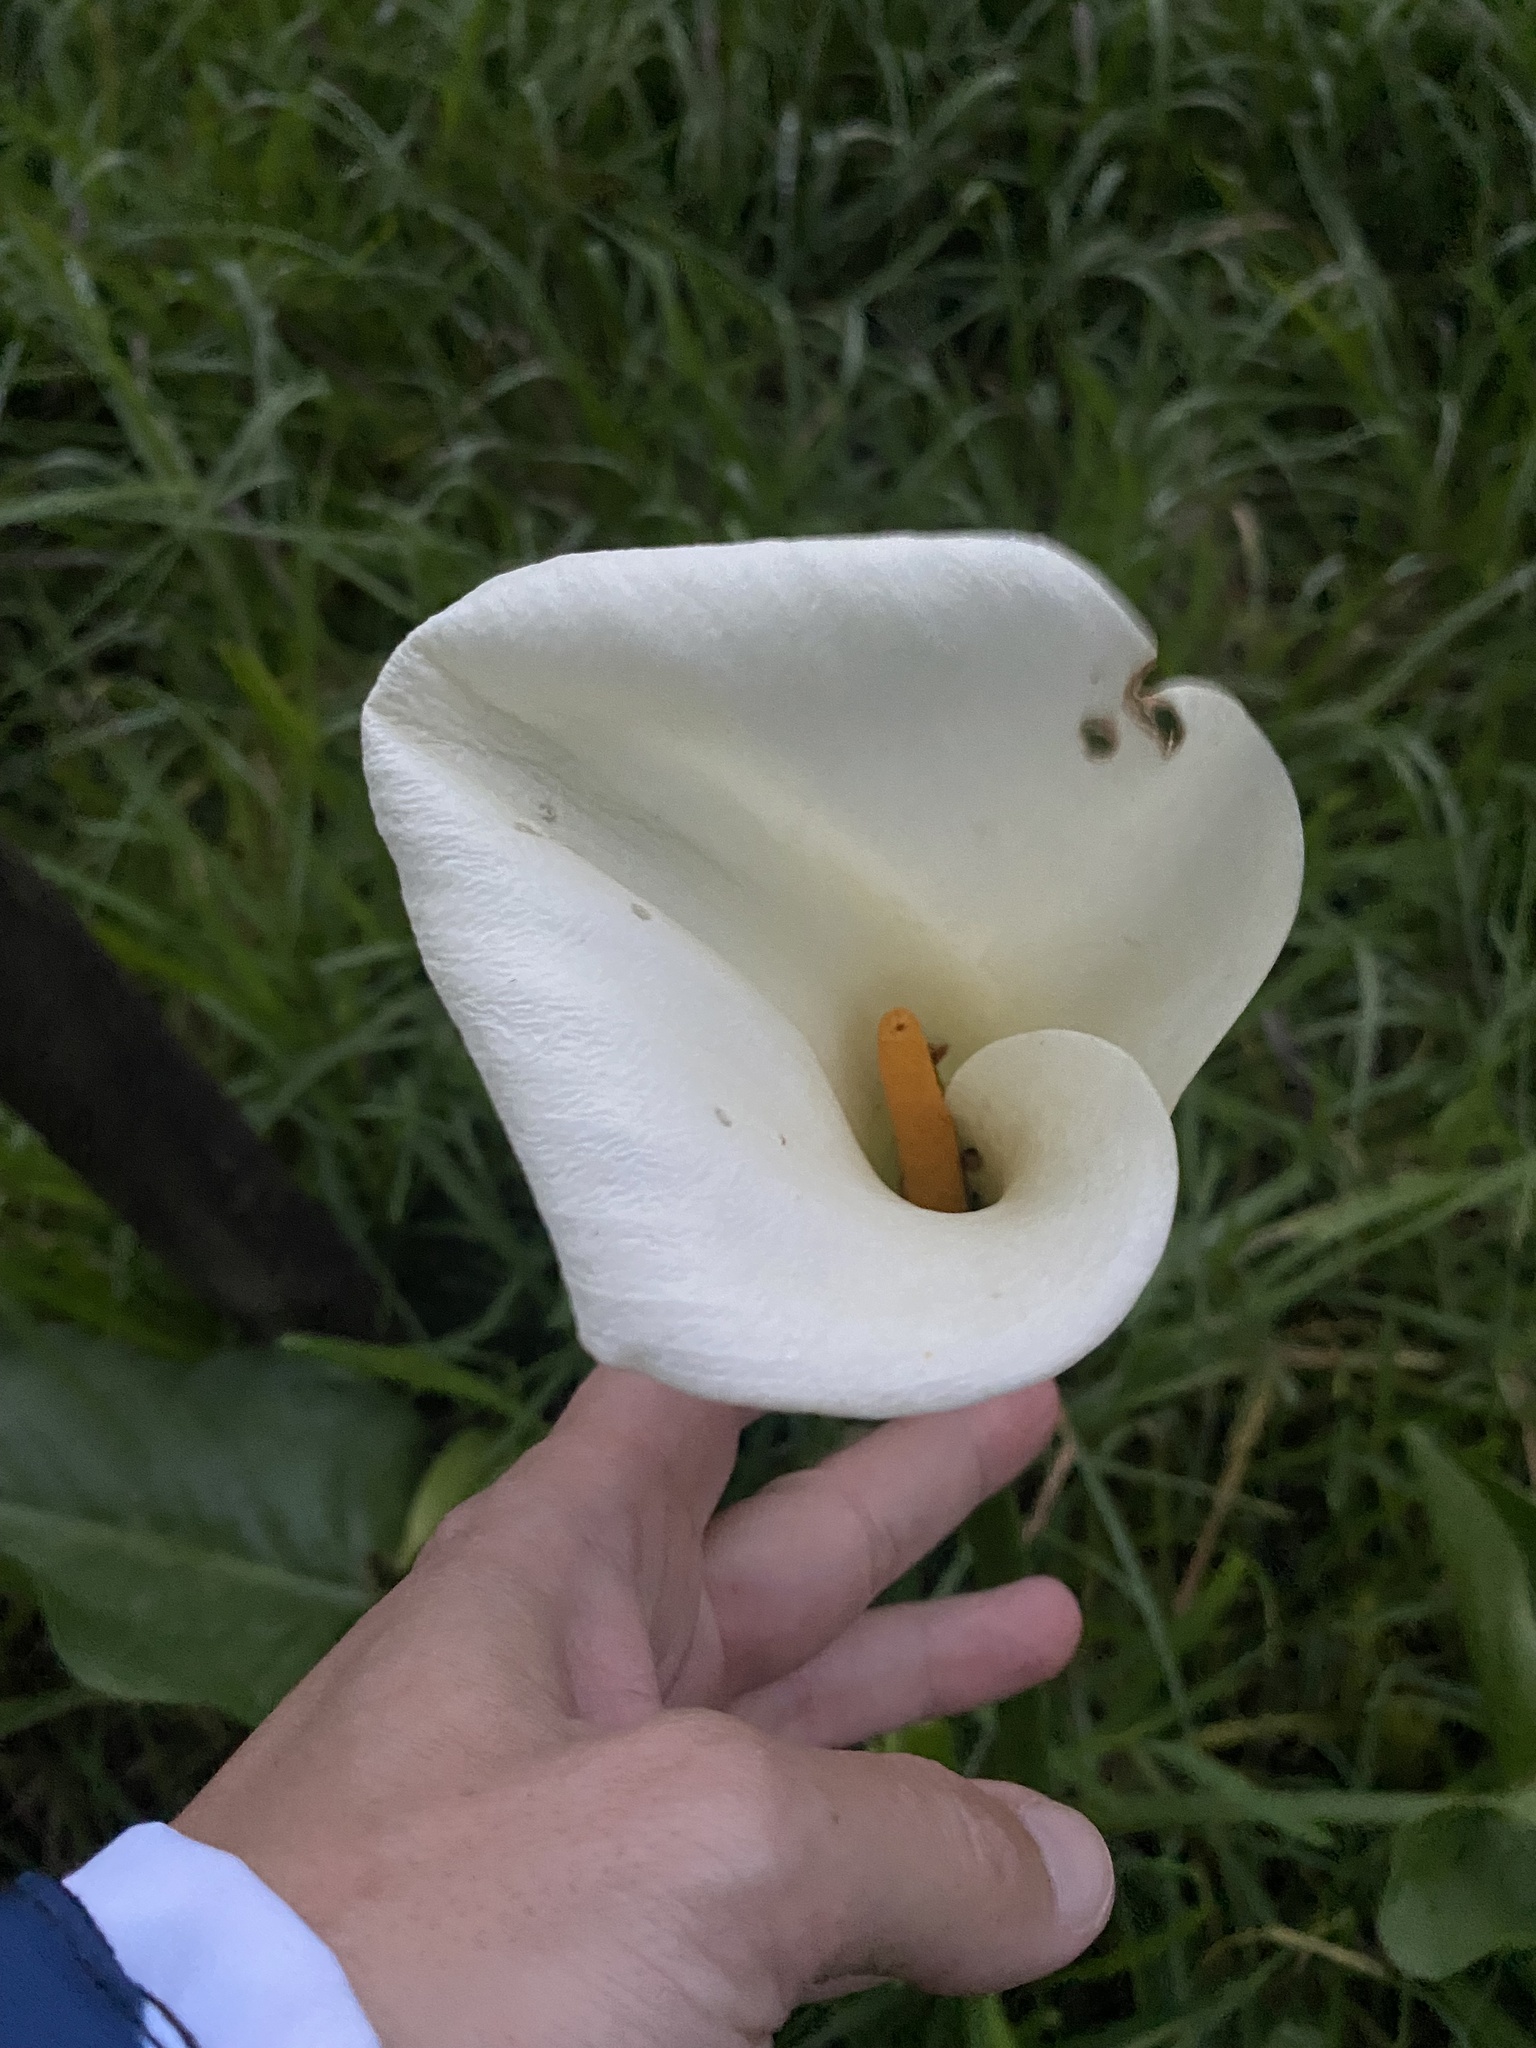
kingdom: Plantae
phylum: Tracheophyta
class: Liliopsida
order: Alismatales
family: Araceae
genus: Zantedeschia
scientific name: Zantedeschia aethiopica
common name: Altar-lily
